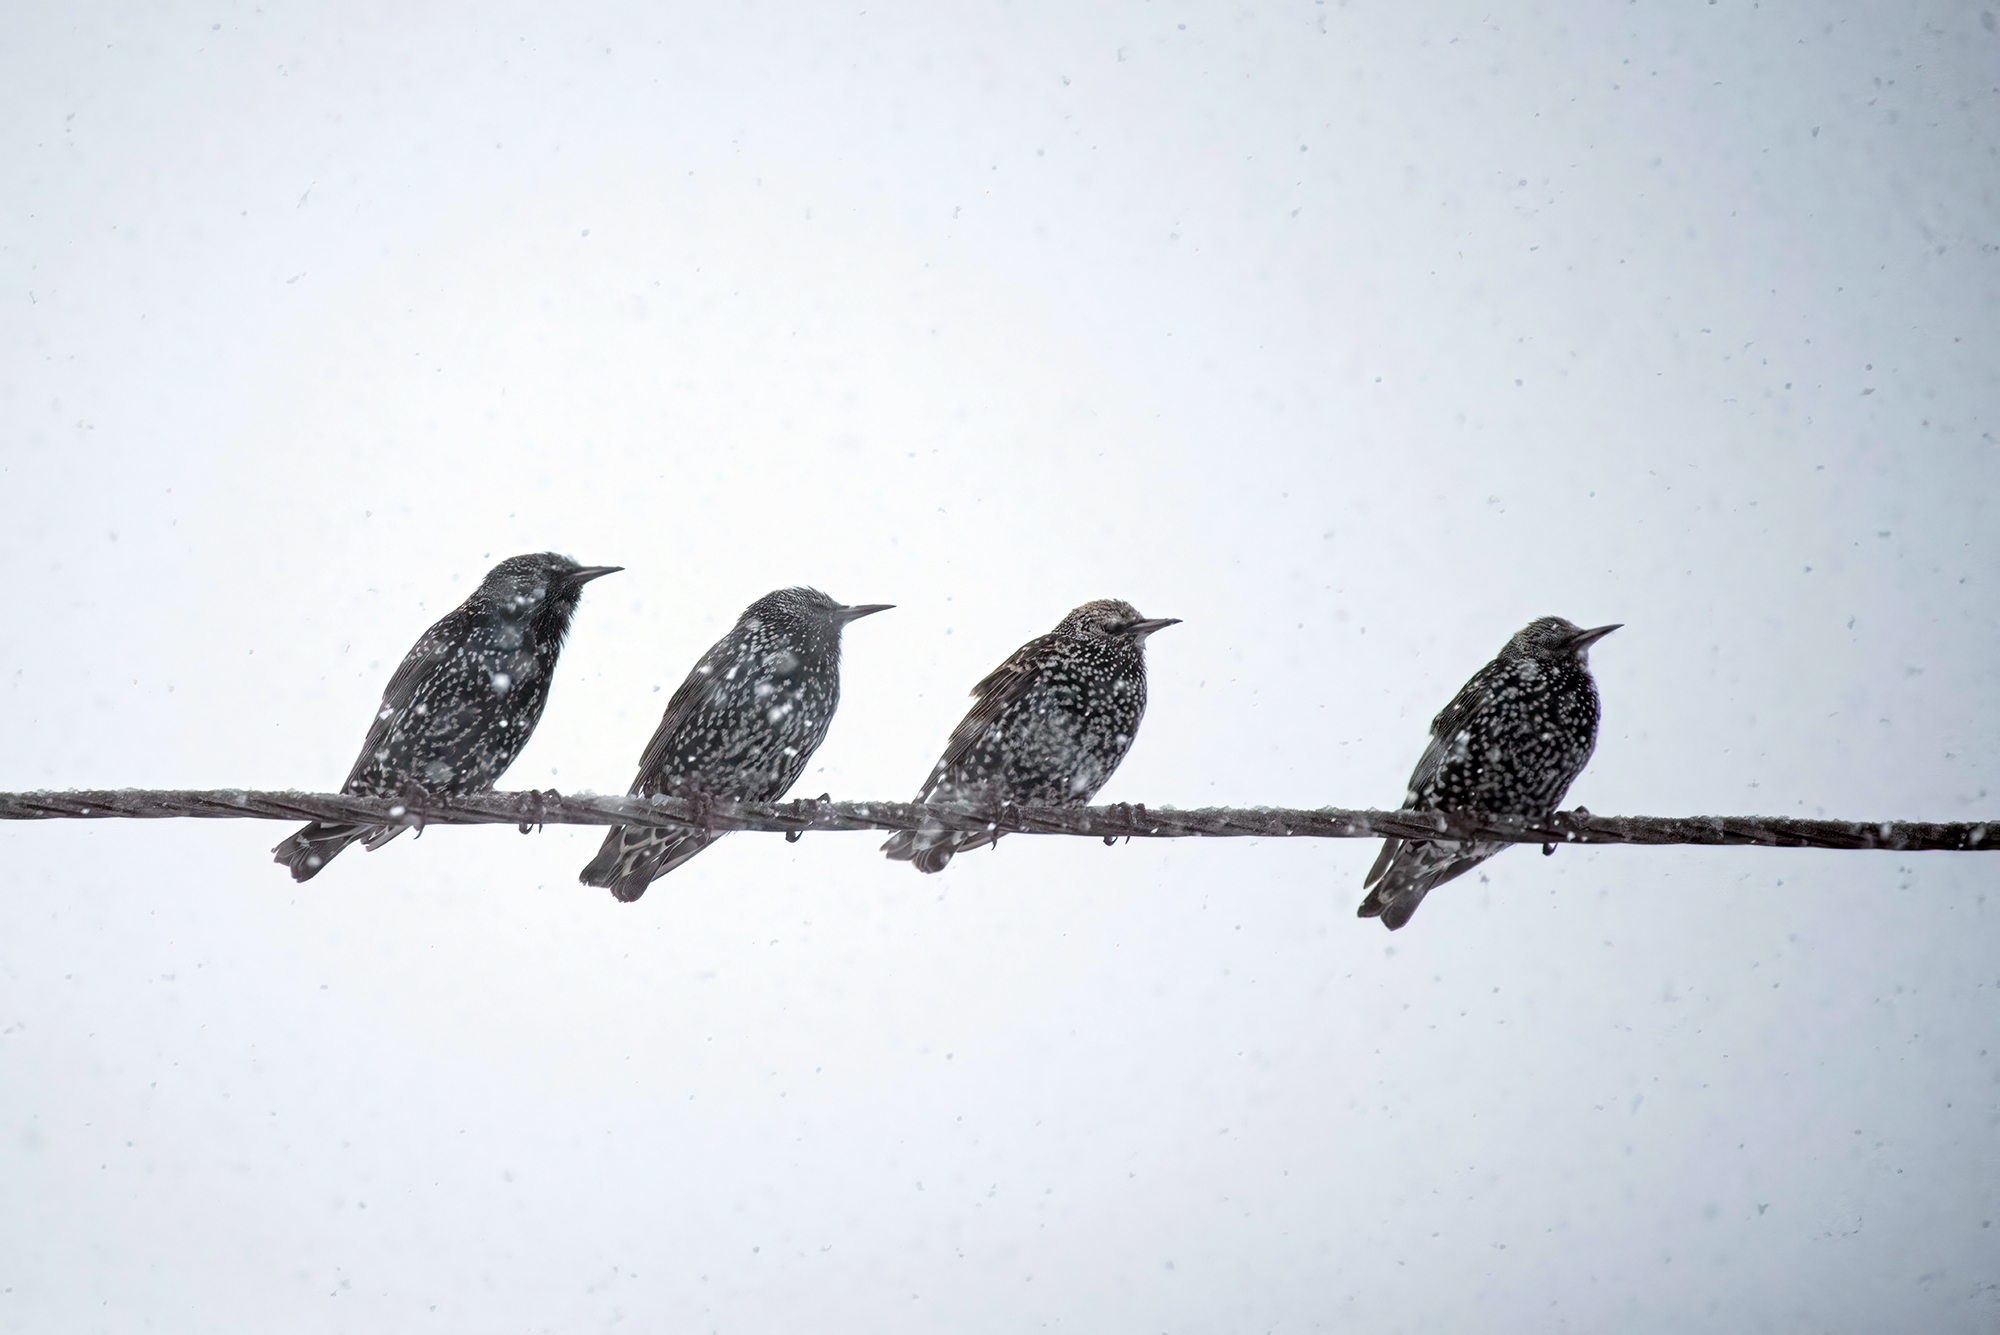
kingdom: Animalia
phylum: Chordata
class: Aves
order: Passeriformes
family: Sturnidae
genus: Sturnus
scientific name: Sturnus vulgaris
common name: Common starling
